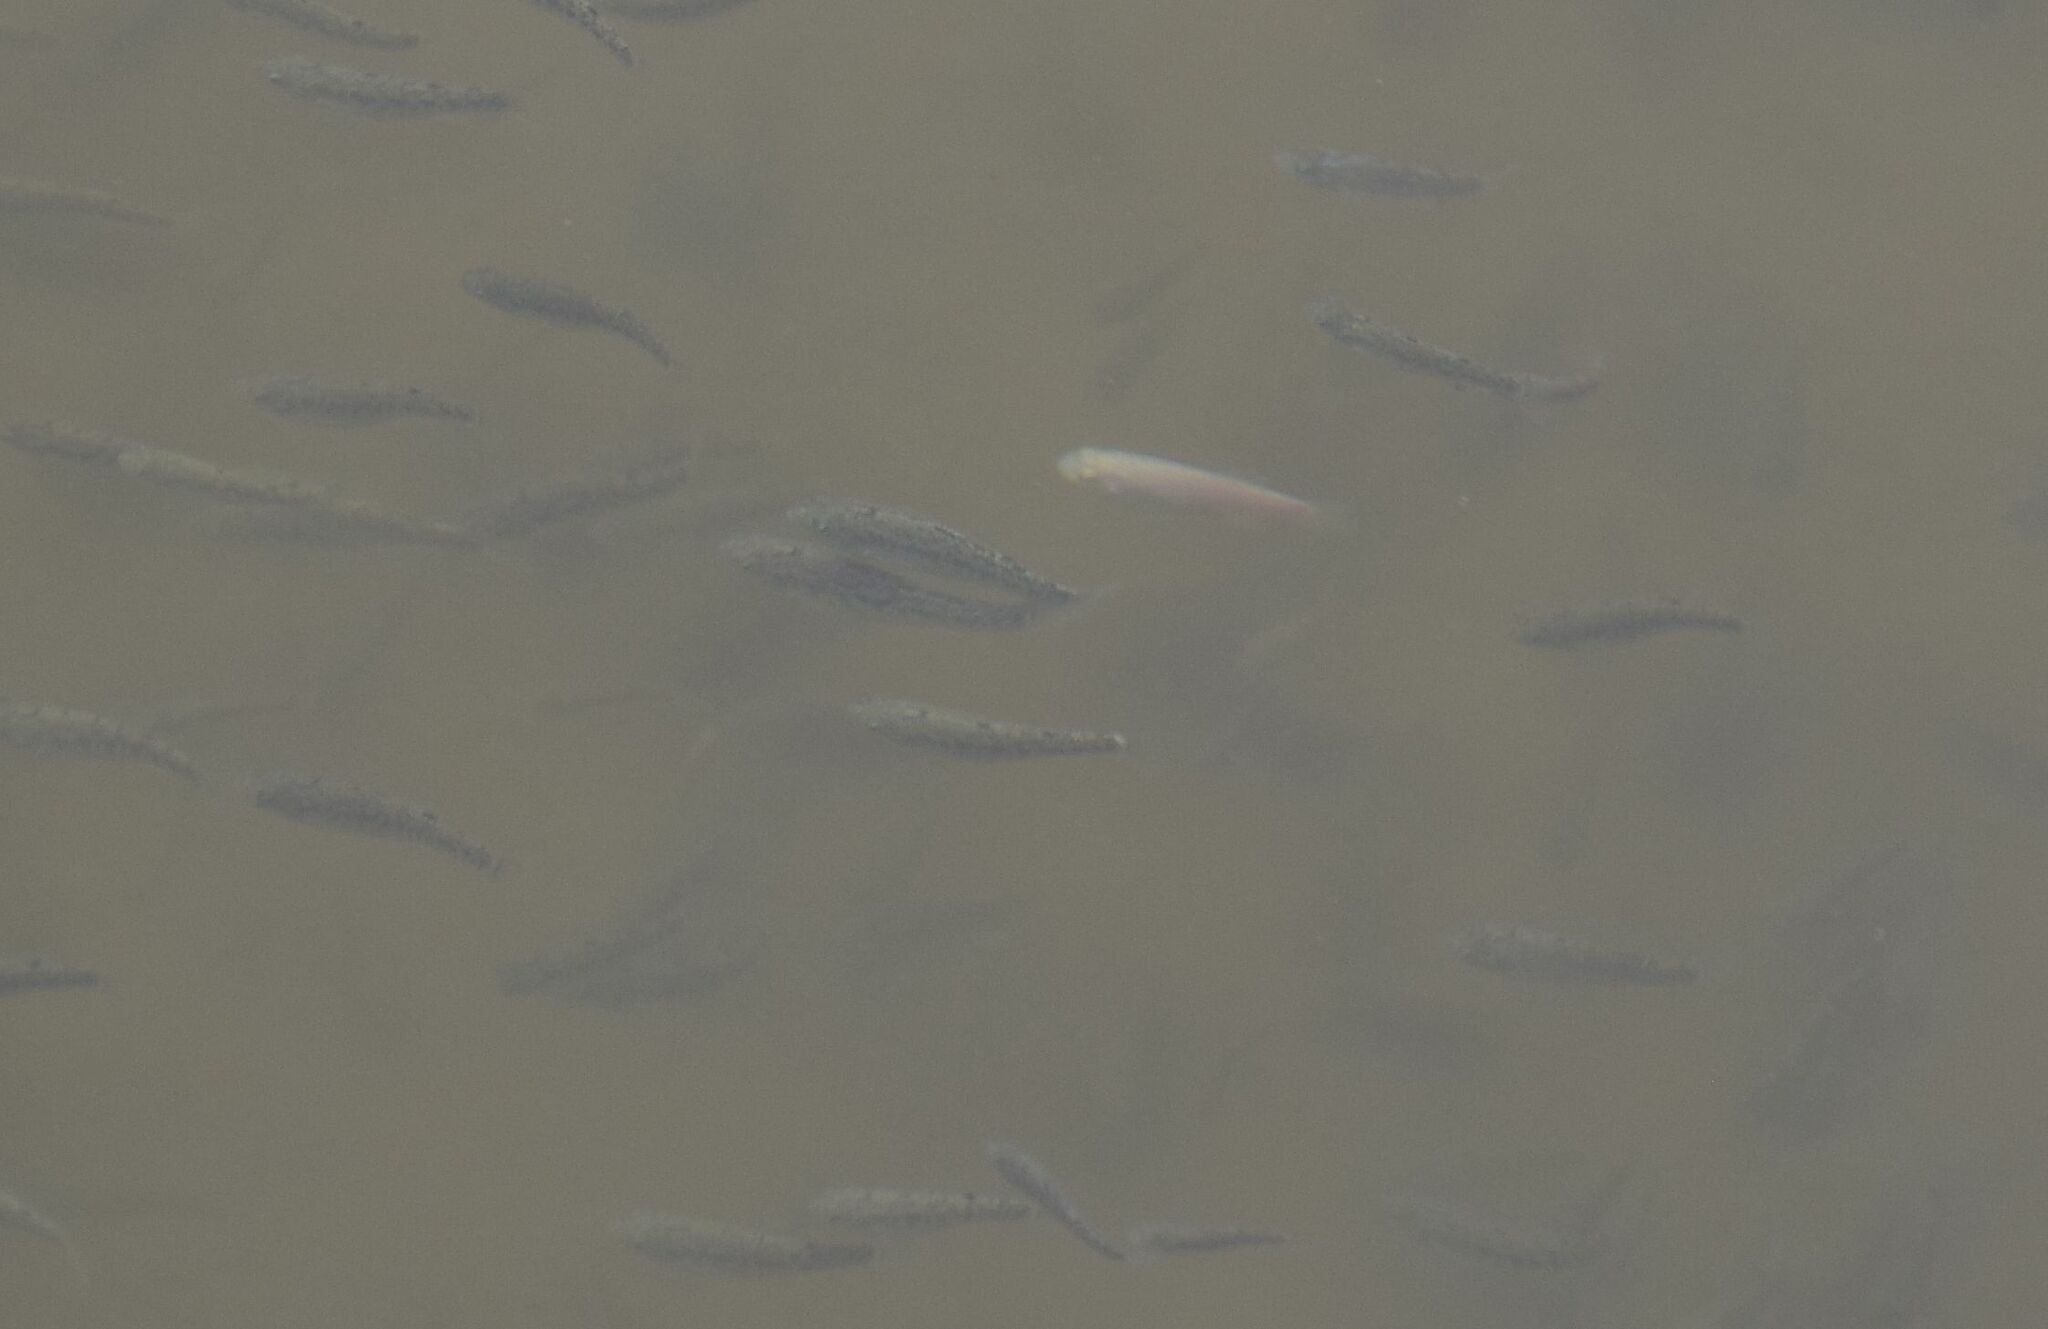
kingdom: Animalia
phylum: Chordata
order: Cyprinodontiformes
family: Cyprinodontidae
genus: Cyprinodon
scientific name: Cyprinodon salinus
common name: Cottonball marsh pupfish
